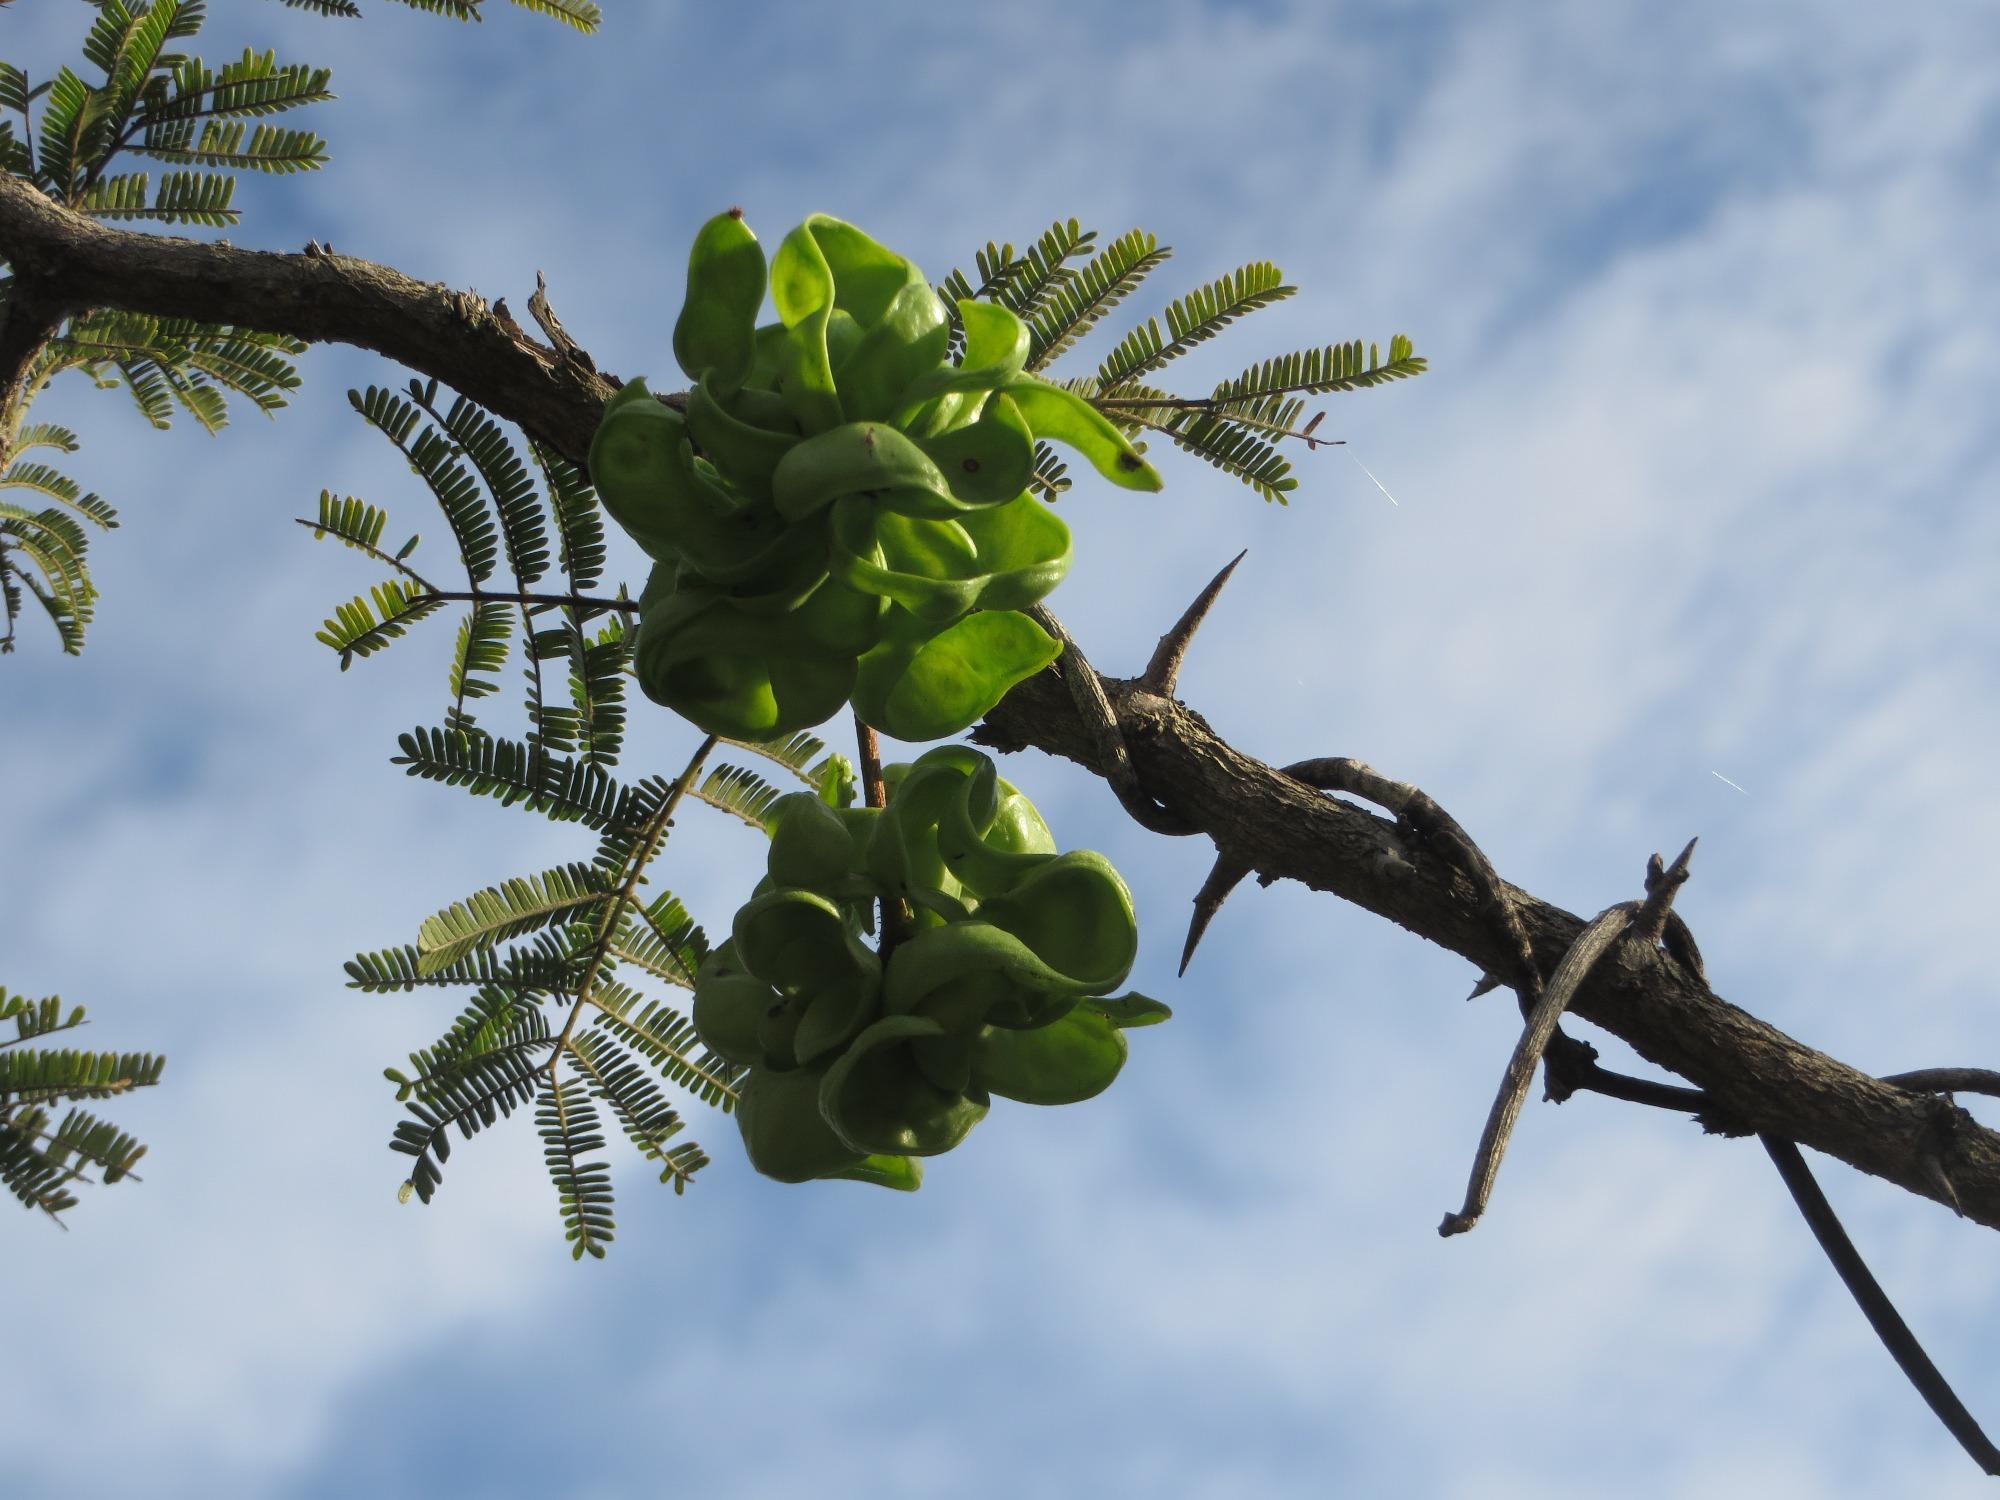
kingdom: Plantae
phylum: Tracheophyta
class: Magnoliopsida
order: Fabales
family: Fabaceae
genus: Dichrostachys
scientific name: Dichrostachys cinerea
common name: Sicklebush
